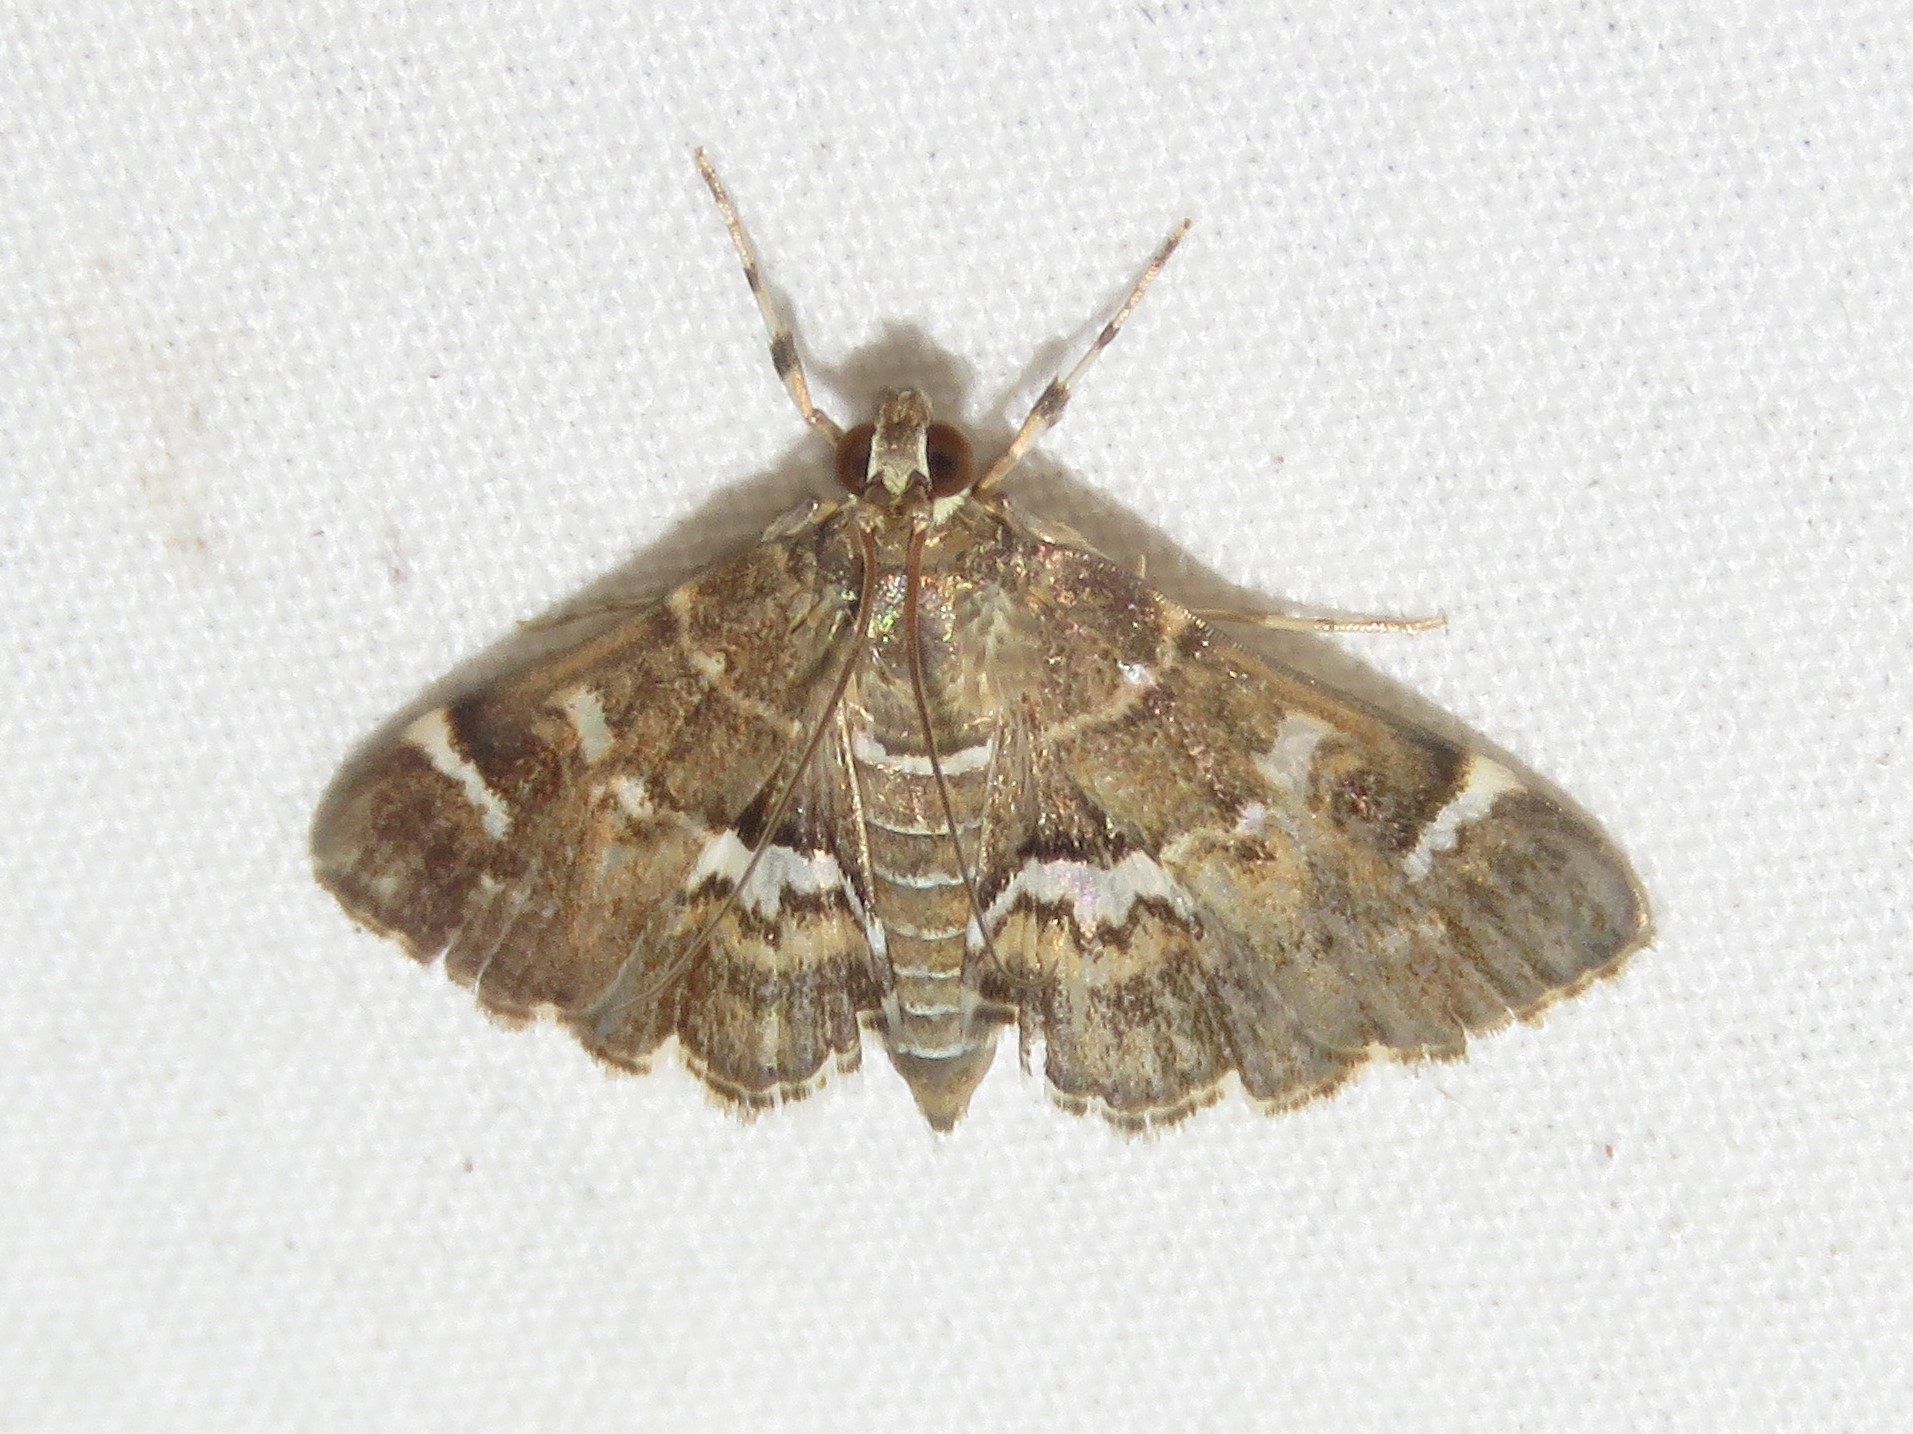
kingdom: Animalia
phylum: Arthropoda
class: Insecta
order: Lepidoptera
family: Crambidae
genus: Hymenia
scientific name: Hymenia perspectalis
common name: Spotted beet webworm
